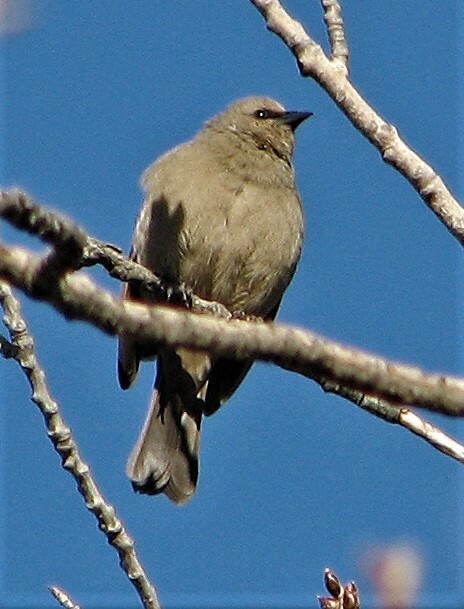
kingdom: Animalia
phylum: Chordata
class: Aves
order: Passeriformes
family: Icteridae
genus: Agelaioides
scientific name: Agelaioides badius
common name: Baywing
